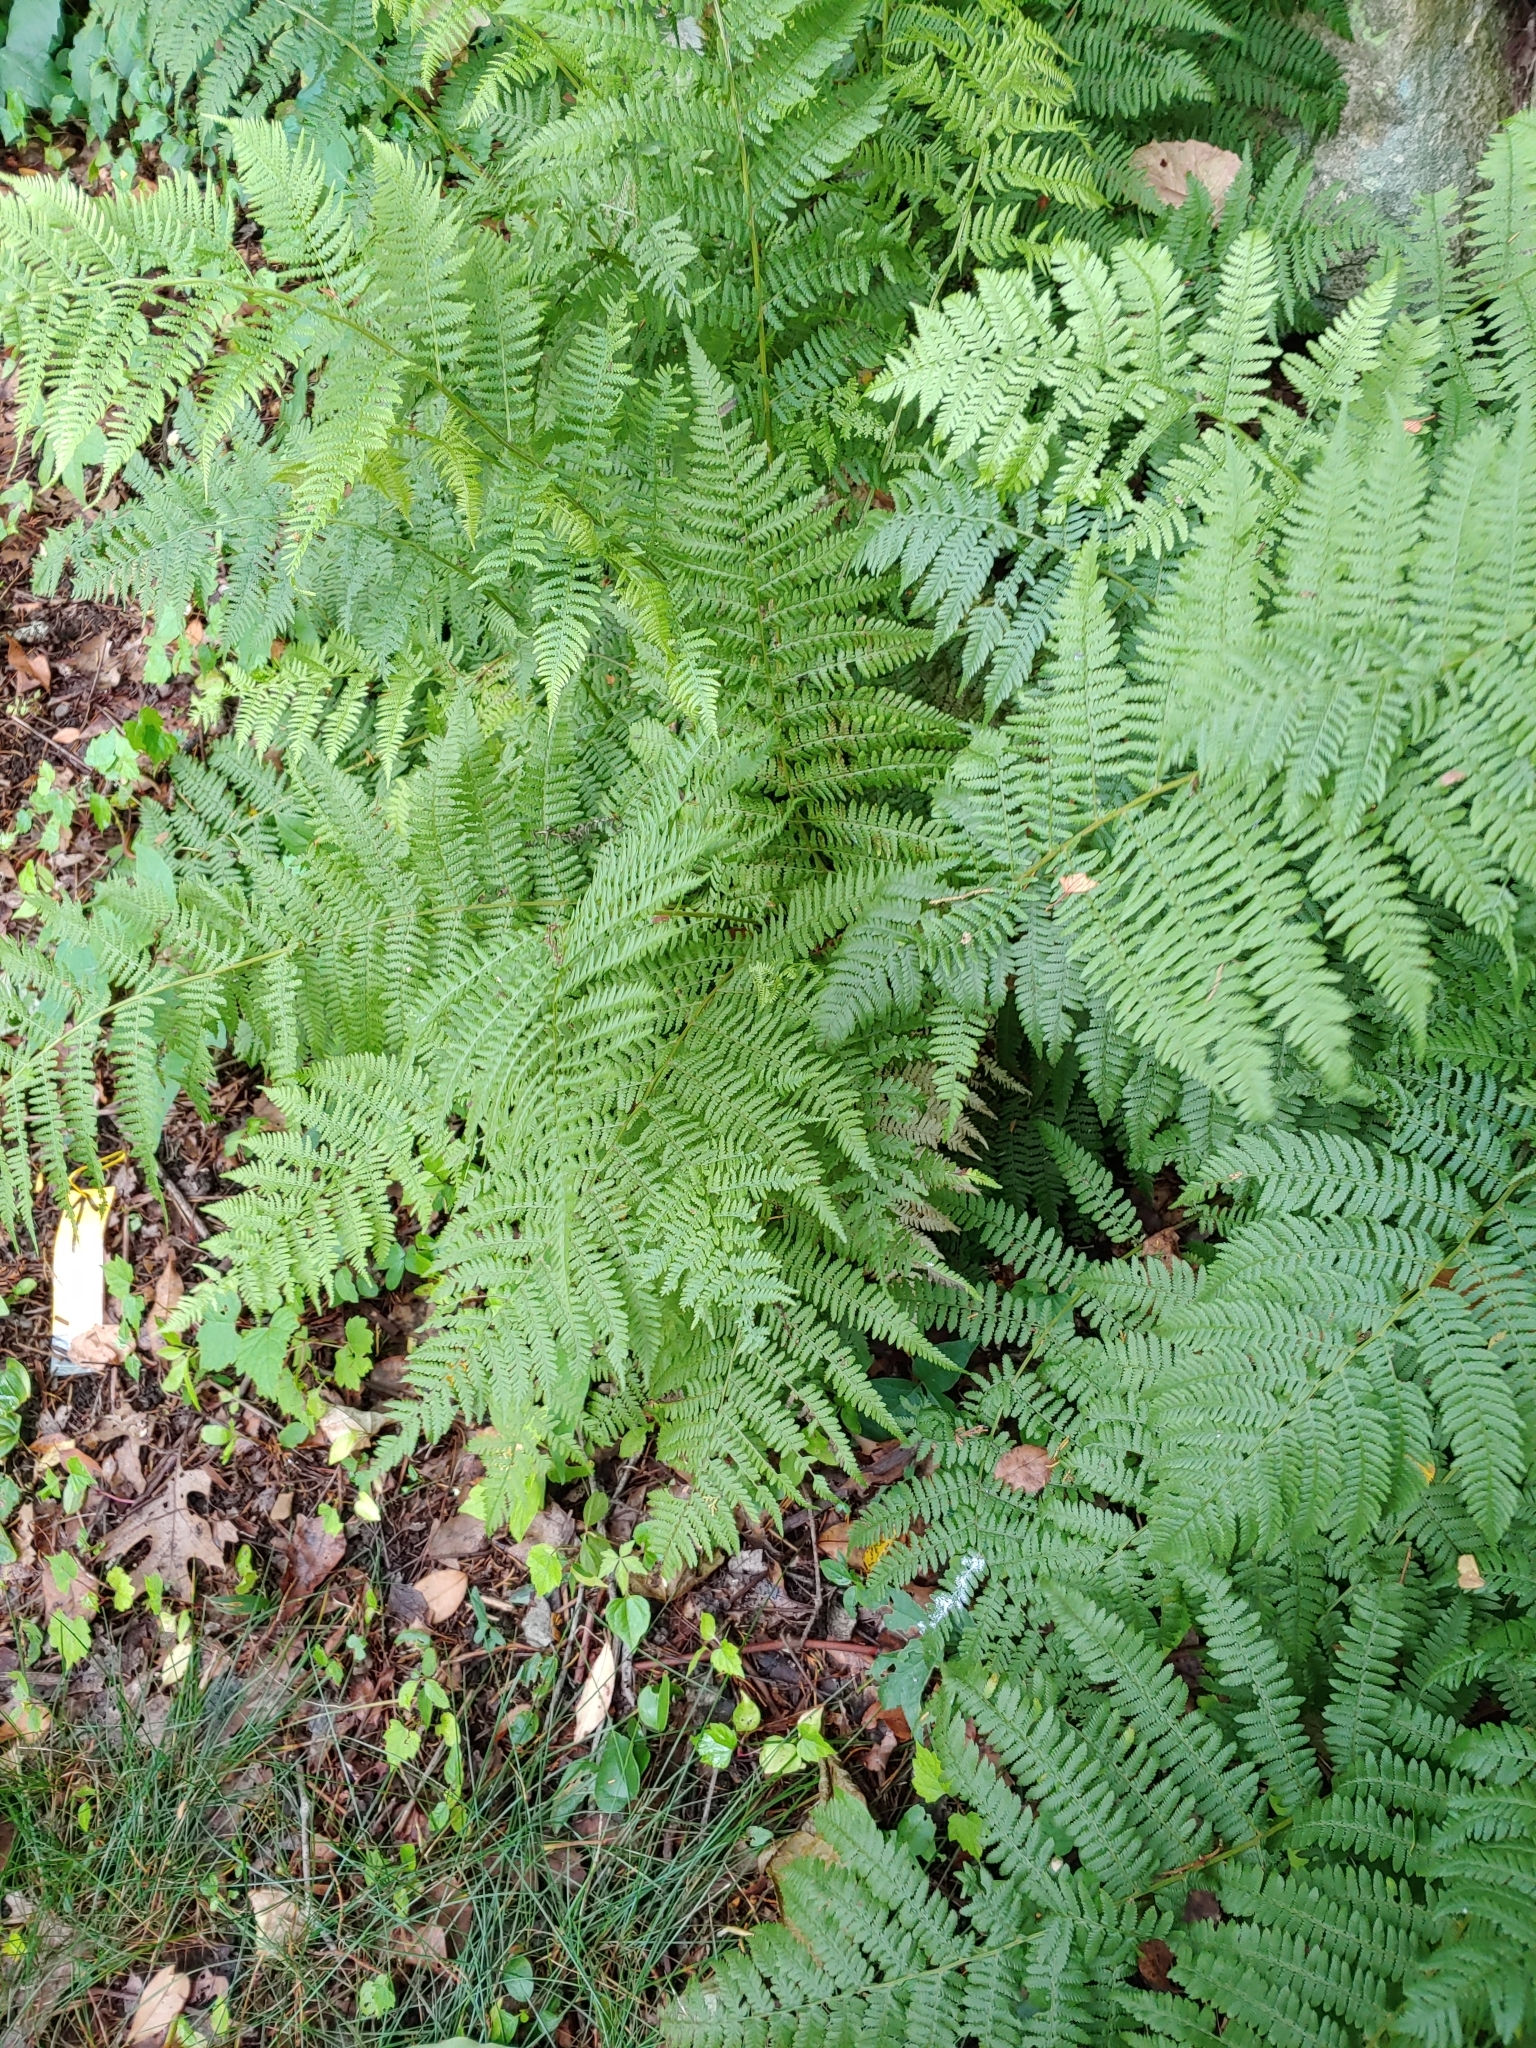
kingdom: Plantae
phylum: Tracheophyta
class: Polypodiopsida
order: Polypodiales
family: Athyriaceae
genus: Athyrium
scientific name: Athyrium angustum
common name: Northern lady fern
